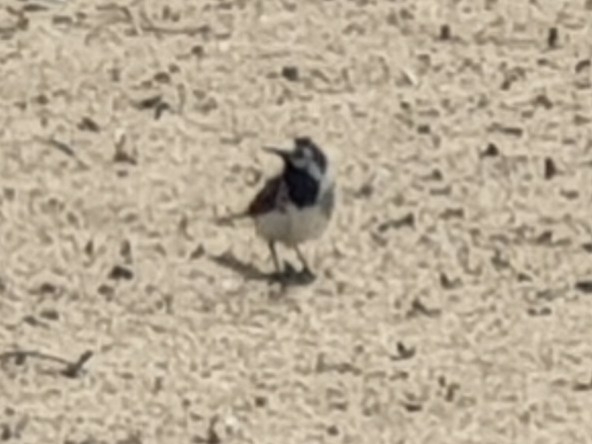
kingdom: Animalia
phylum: Chordata
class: Aves
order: Passeriformes
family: Motacillidae
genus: Motacilla
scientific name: Motacilla alba
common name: White wagtail
